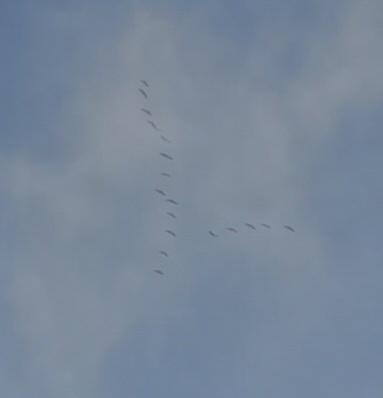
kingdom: Animalia
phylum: Chordata
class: Aves
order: Gruiformes
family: Gruidae
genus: Grus
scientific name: Grus grus
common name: Common crane
